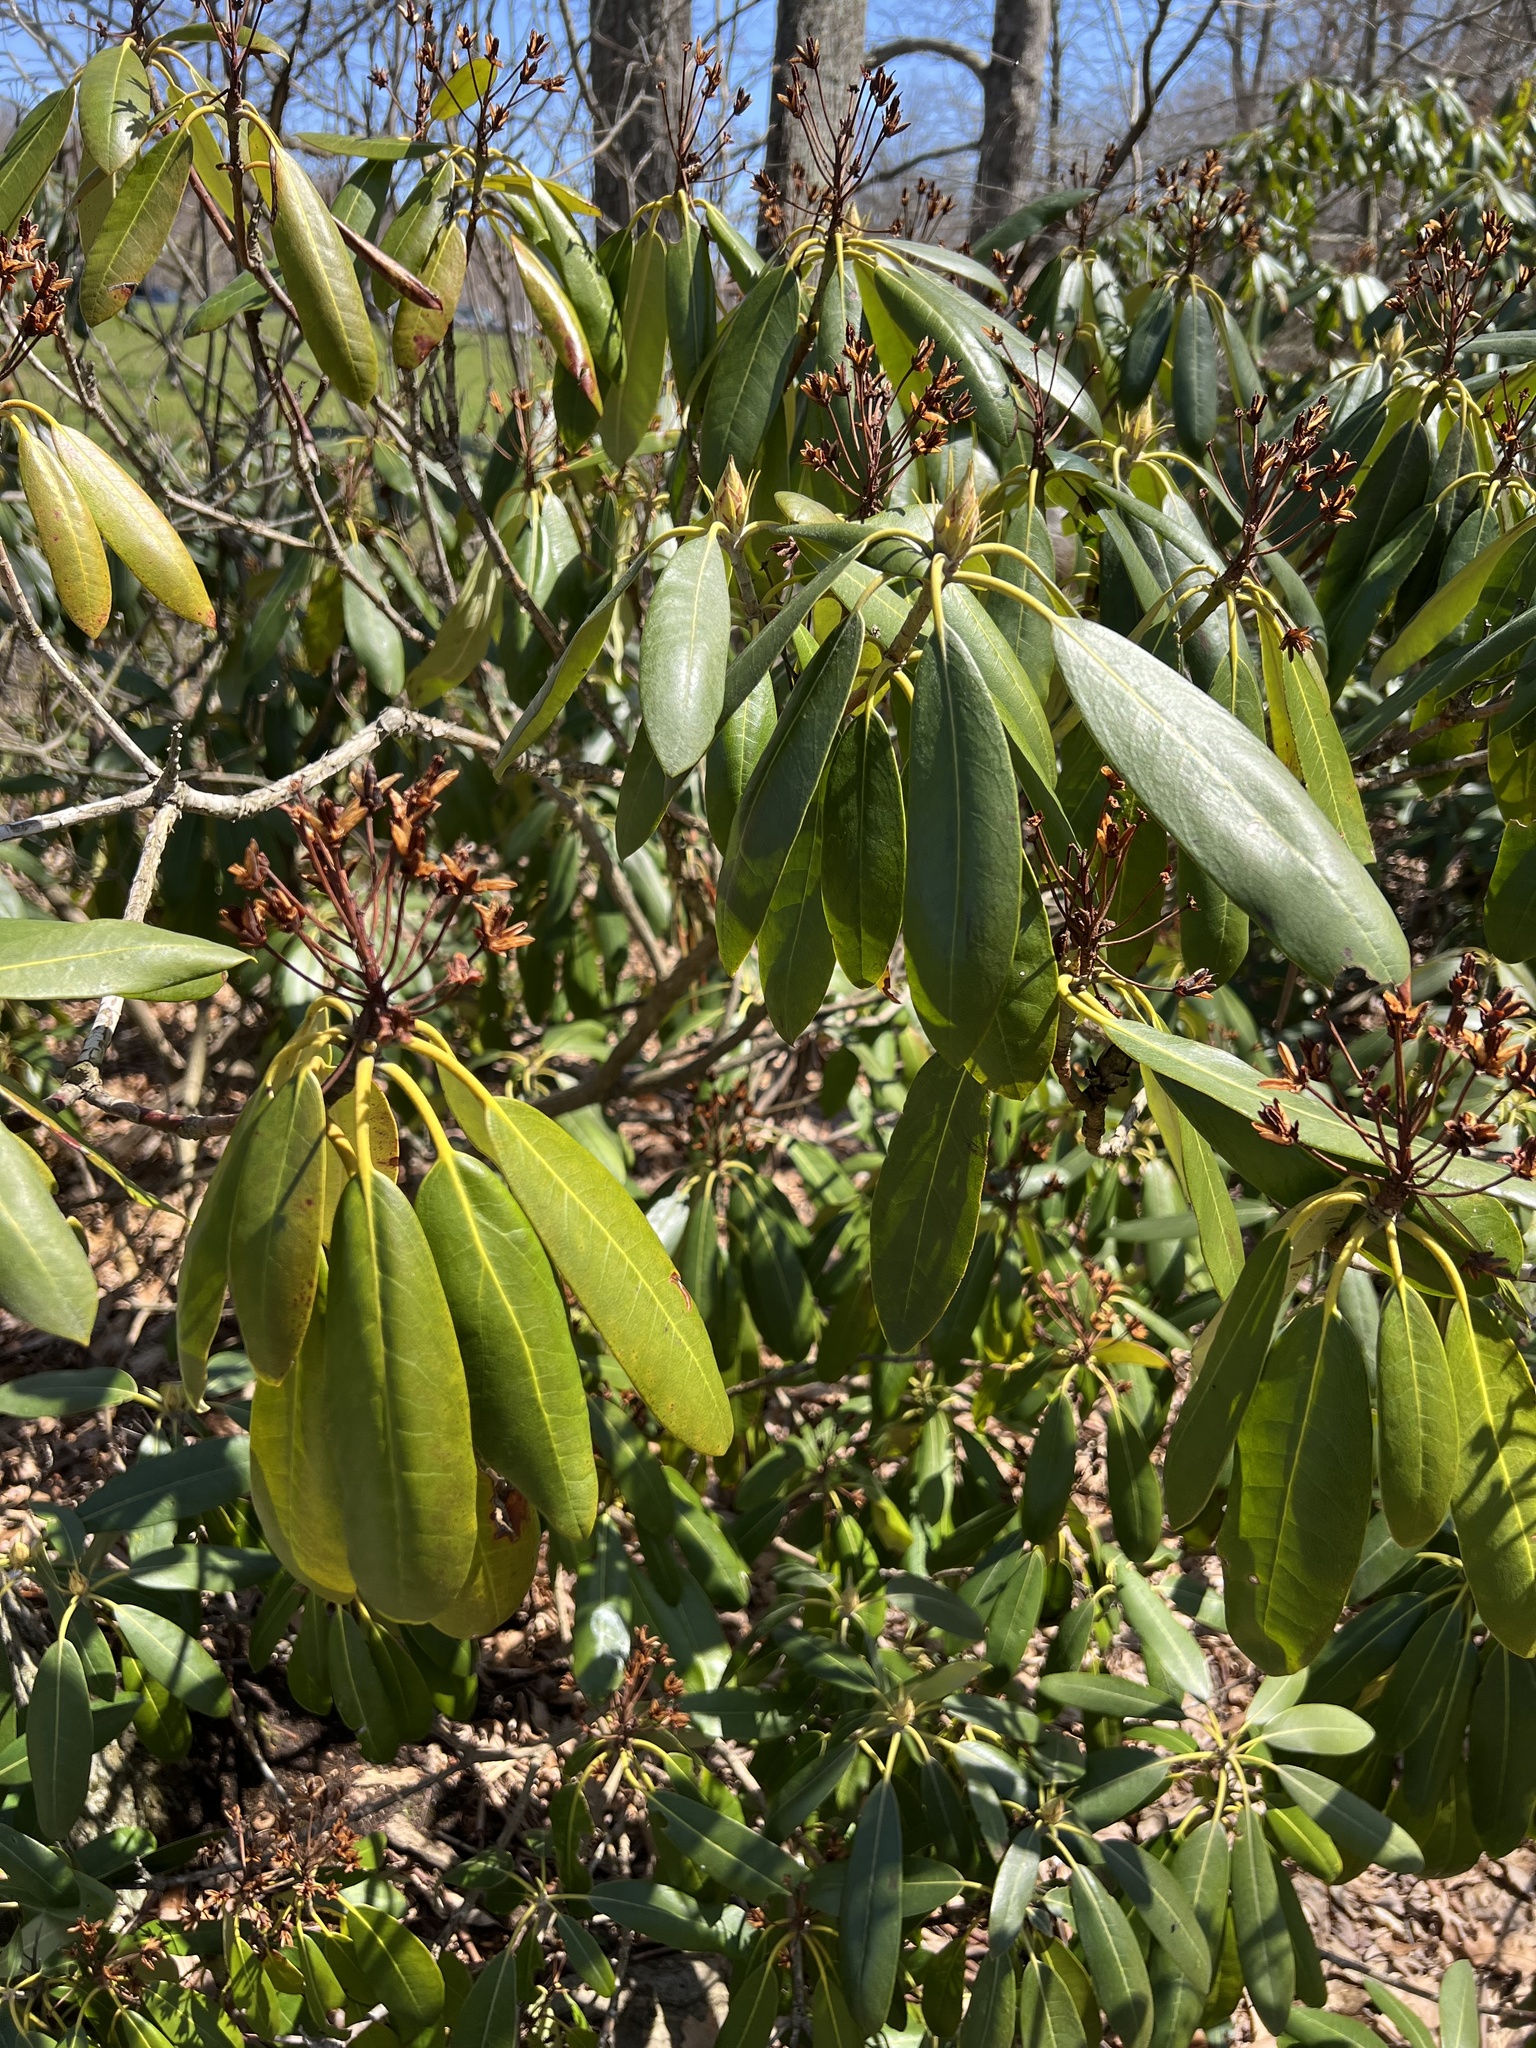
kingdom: Plantae
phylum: Tracheophyta
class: Magnoliopsida
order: Ericales
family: Ericaceae
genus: Rhododendron
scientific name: Rhododendron maximum
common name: Great rhododendron
